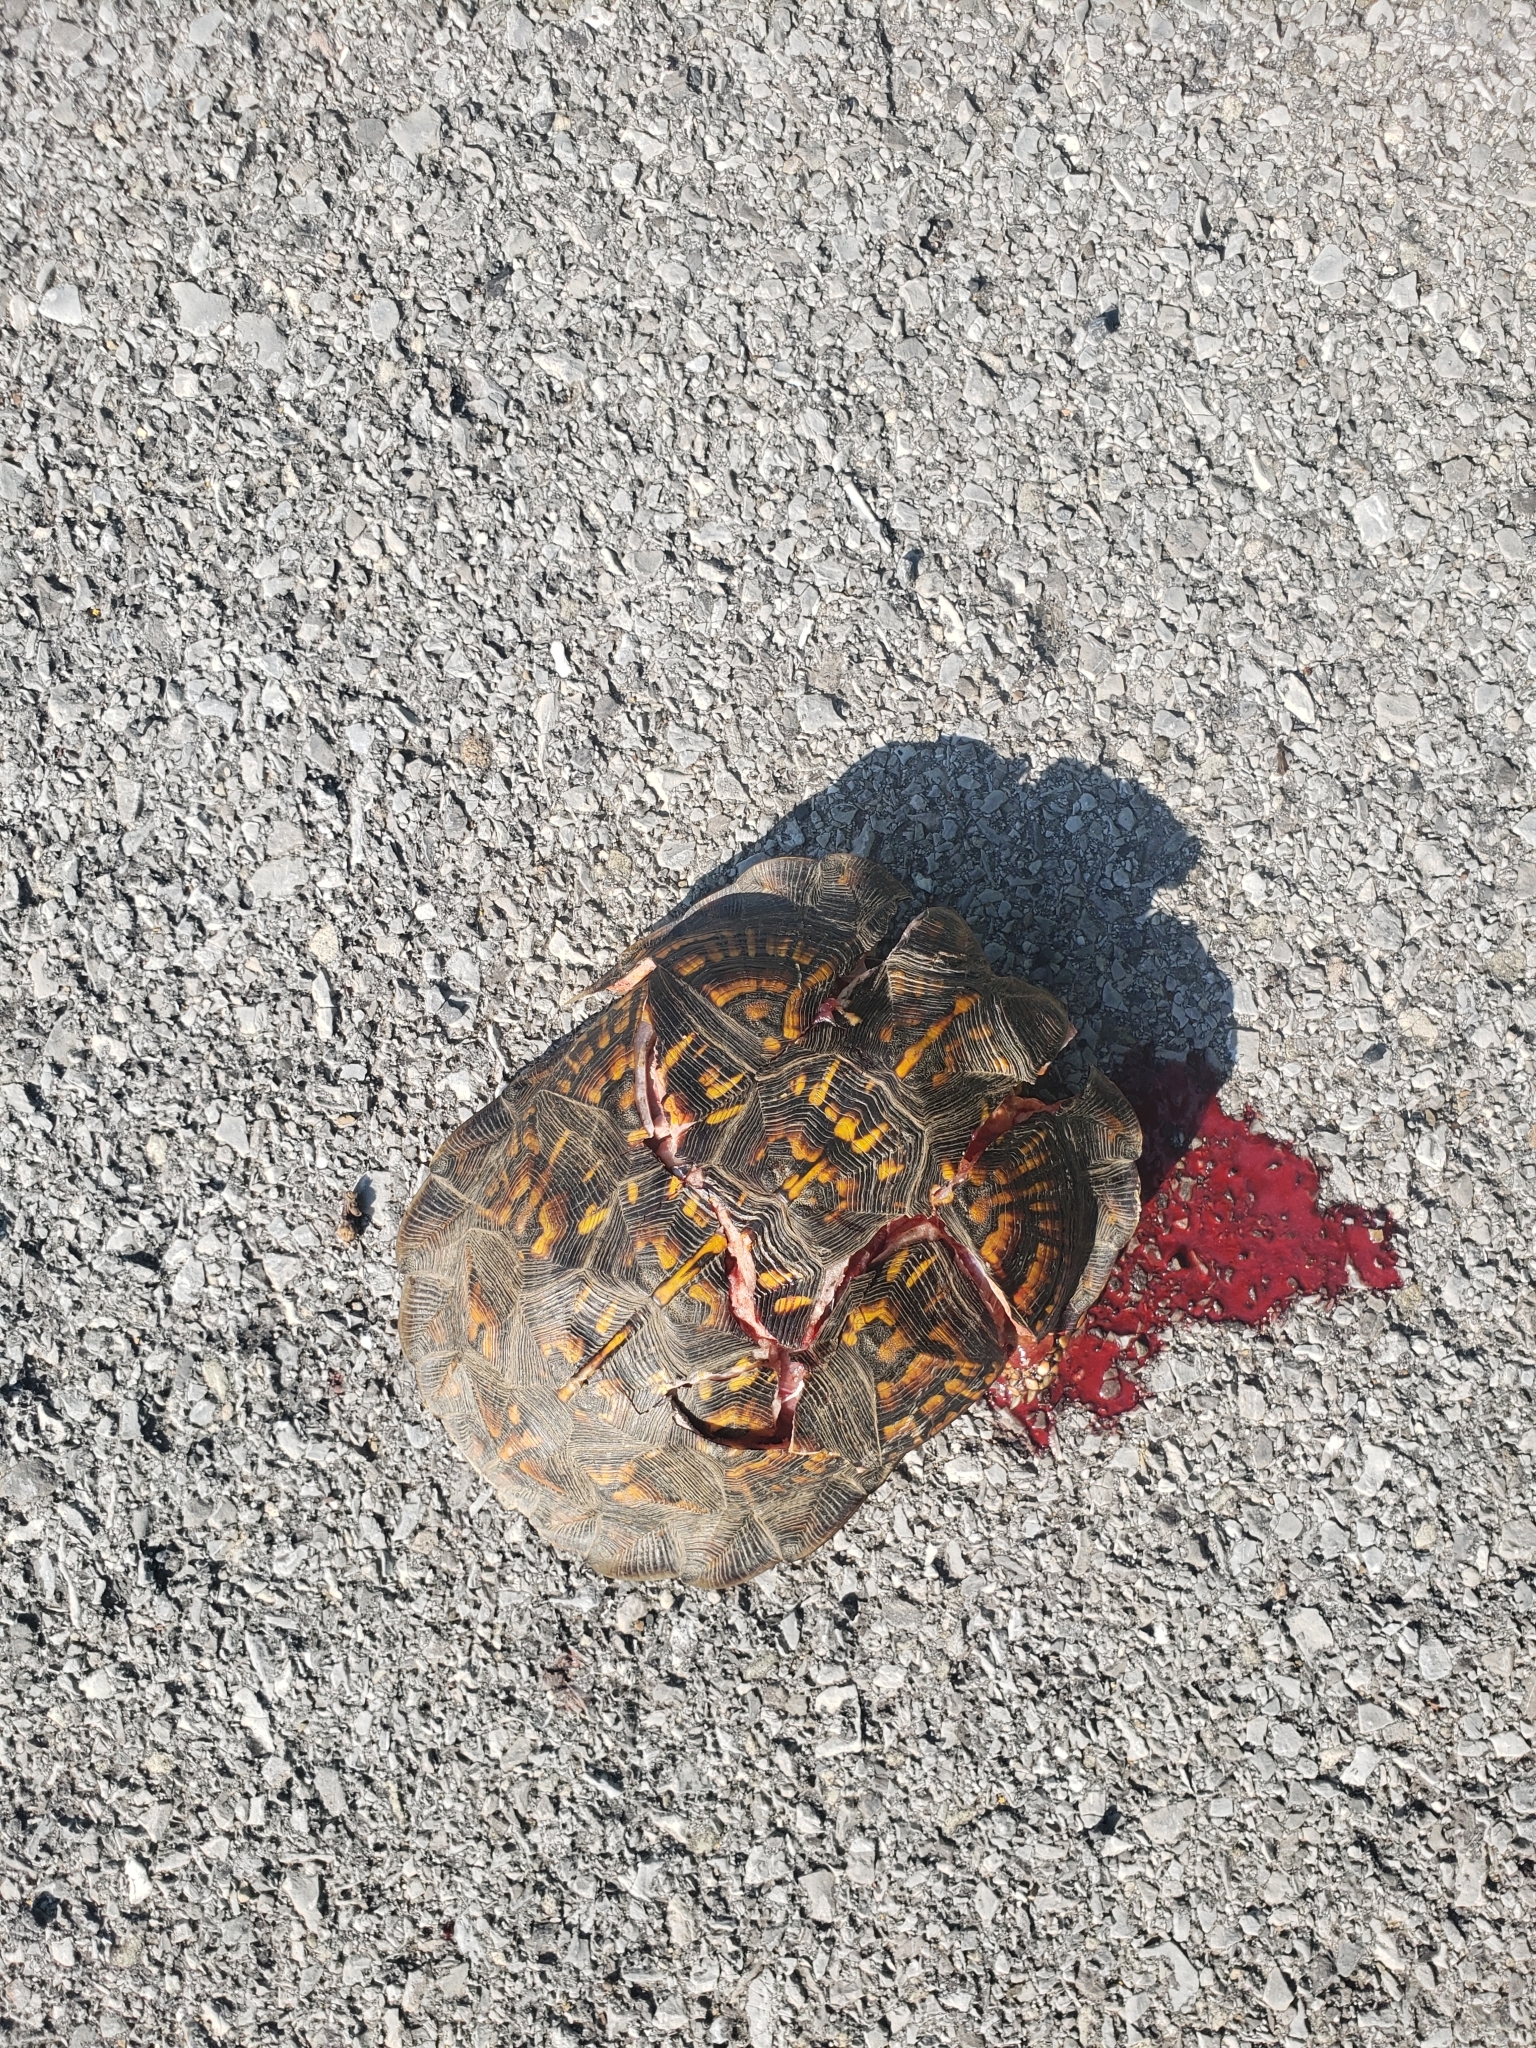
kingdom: Animalia
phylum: Chordata
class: Testudines
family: Emydidae
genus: Terrapene
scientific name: Terrapene carolina
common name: Common box turtle
